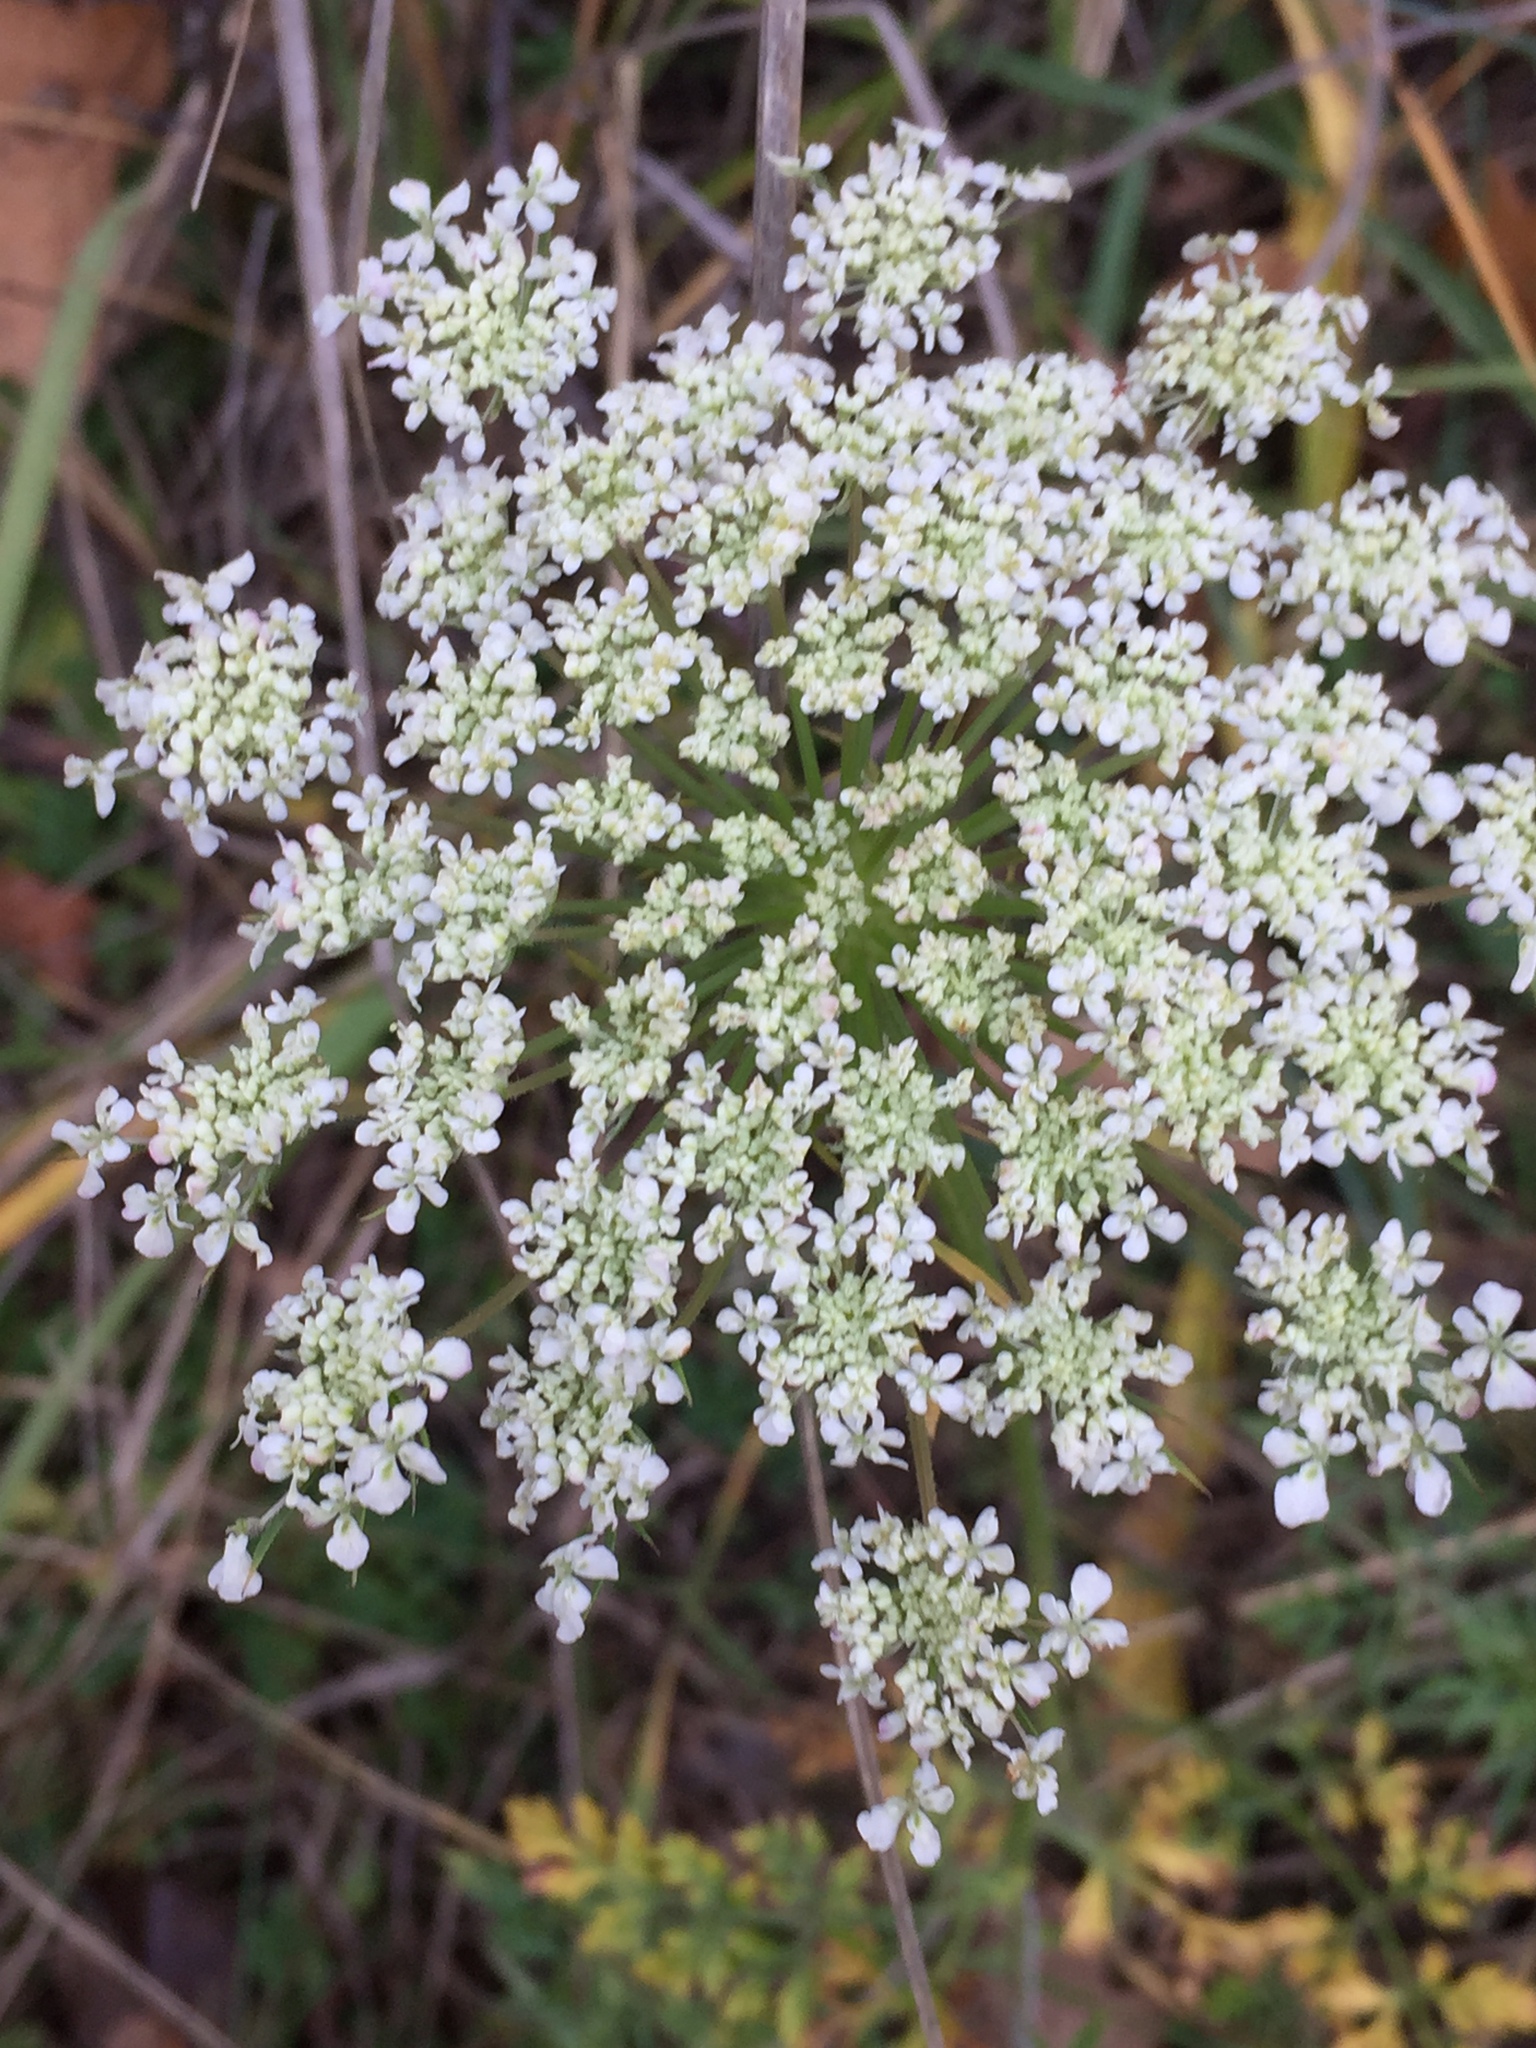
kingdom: Plantae
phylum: Tracheophyta
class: Magnoliopsida
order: Apiales
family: Apiaceae
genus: Daucus
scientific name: Daucus carota
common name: Wild carrot
